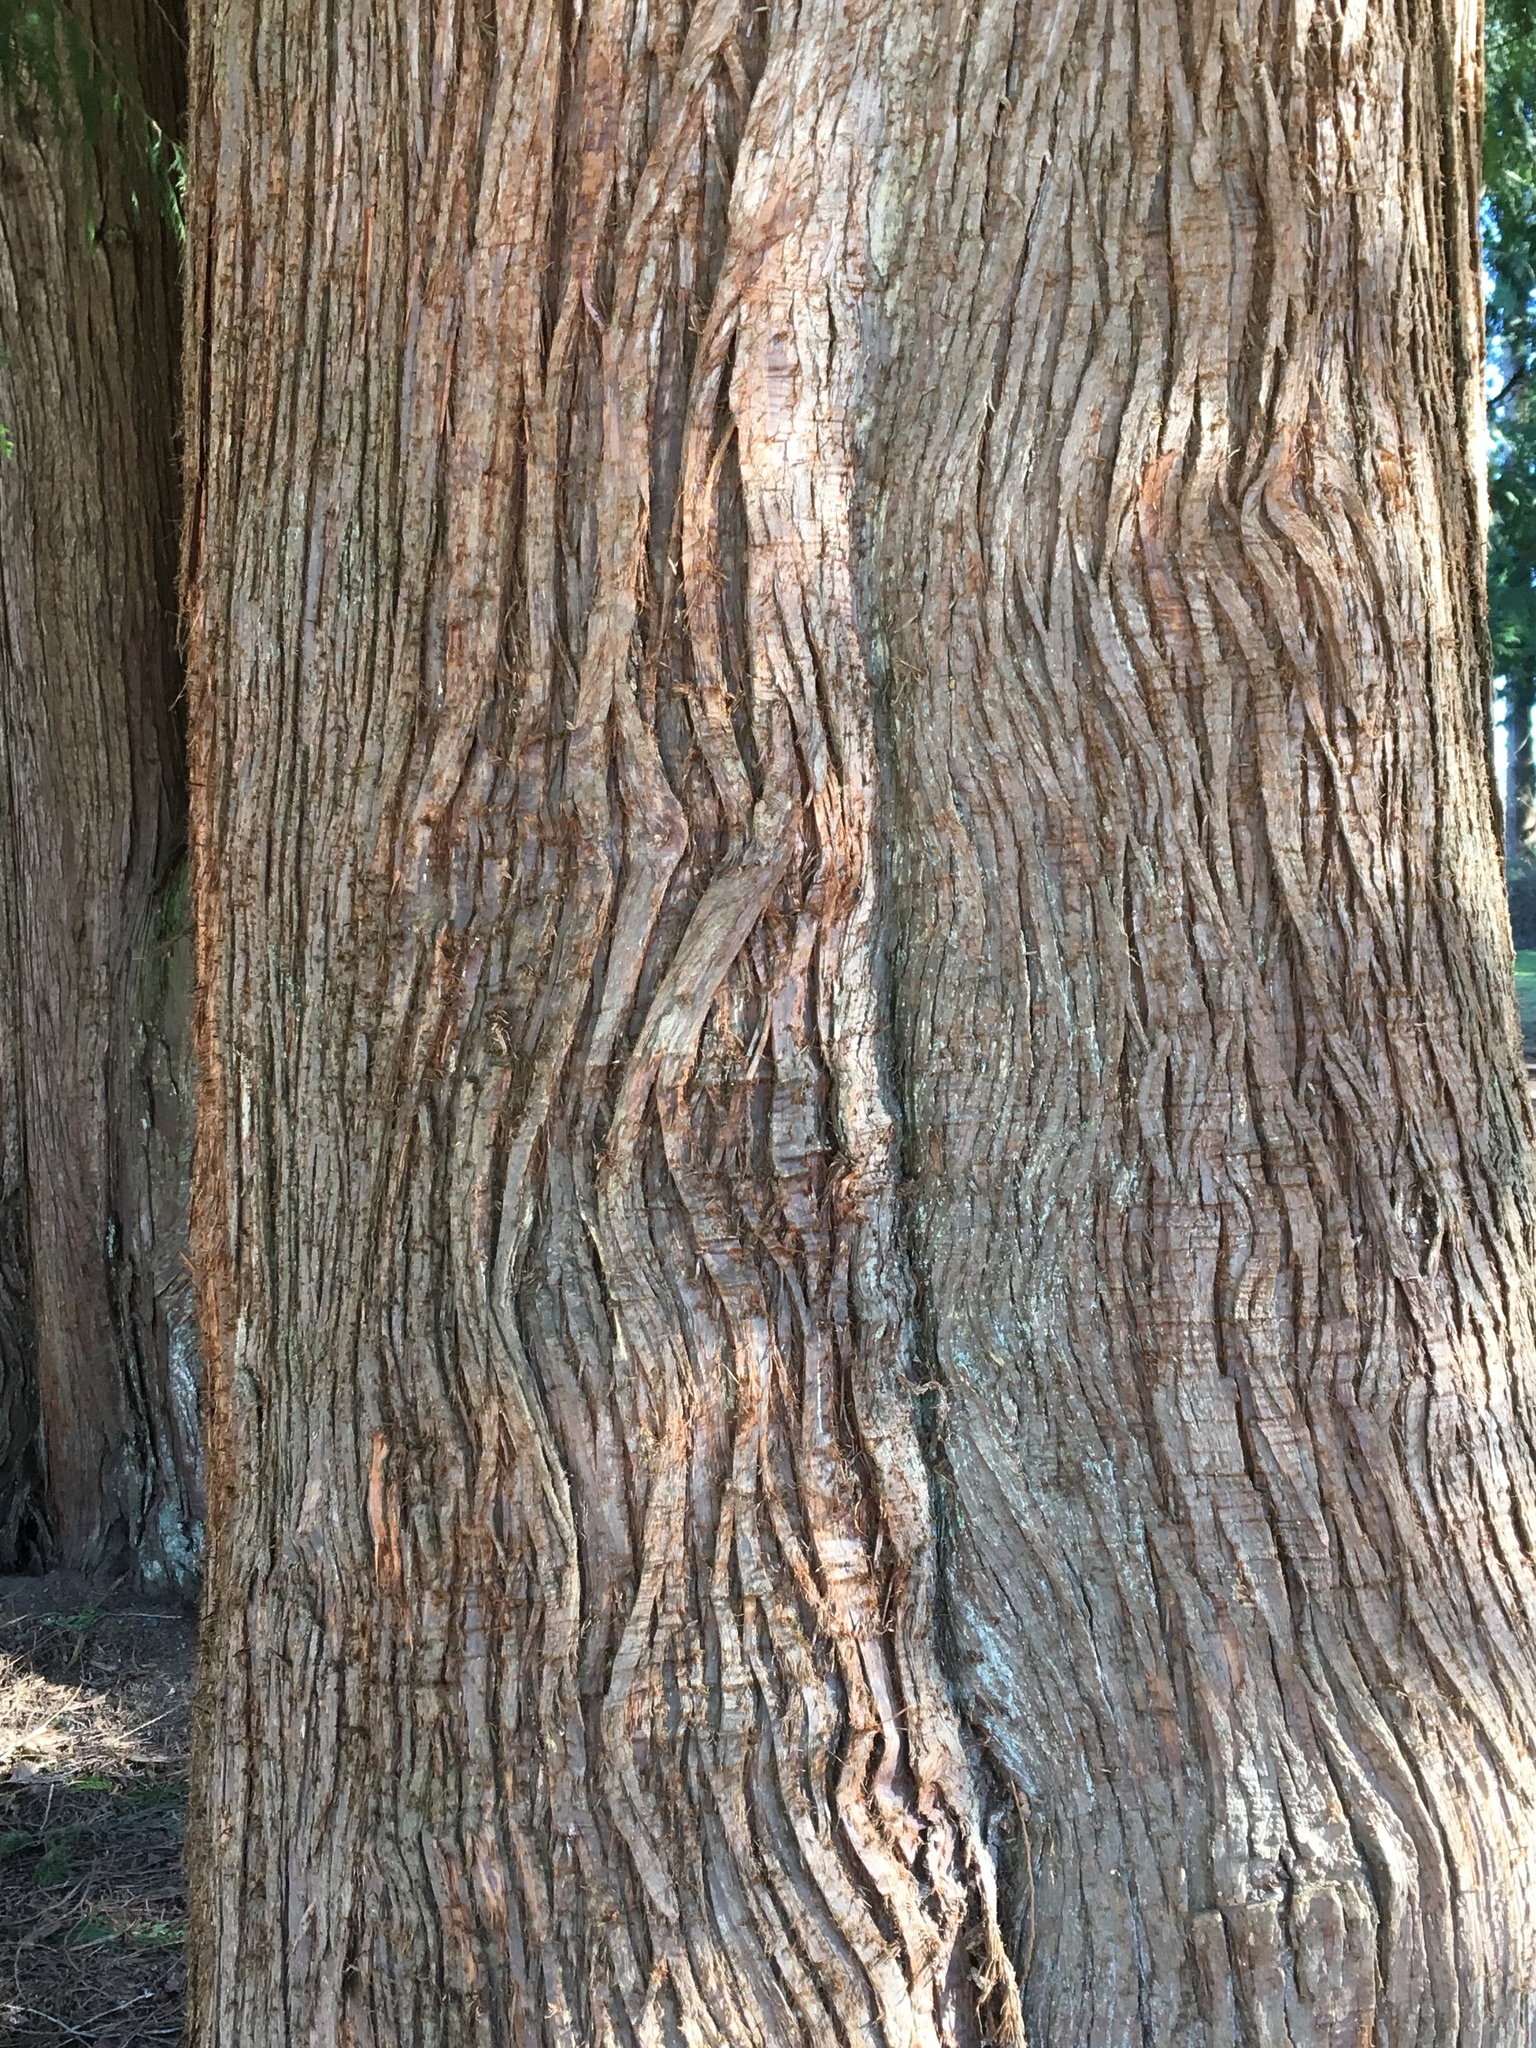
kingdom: Plantae
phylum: Tracheophyta
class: Pinopsida
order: Pinales
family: Cupressaceae
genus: Thuja
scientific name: Thuja plicata
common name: Western red-cedar
